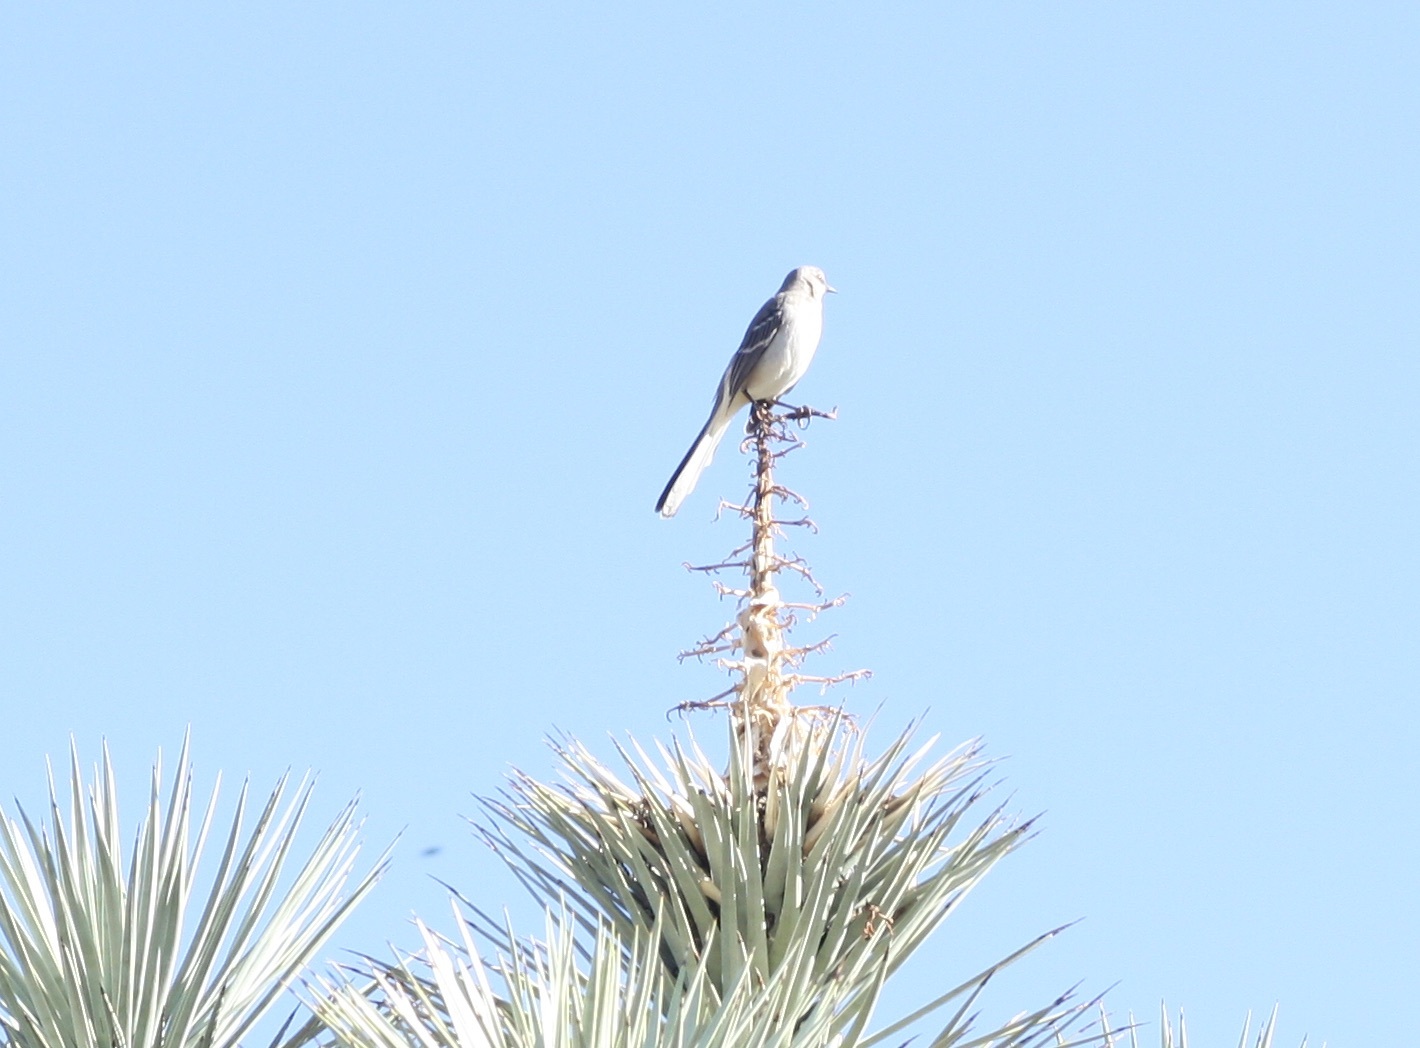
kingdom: Animalia
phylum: Chordata
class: Aves
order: Passeriformes
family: Mimidae
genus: Mimus
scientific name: Mimus polyglottos
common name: Northern mockingbird
